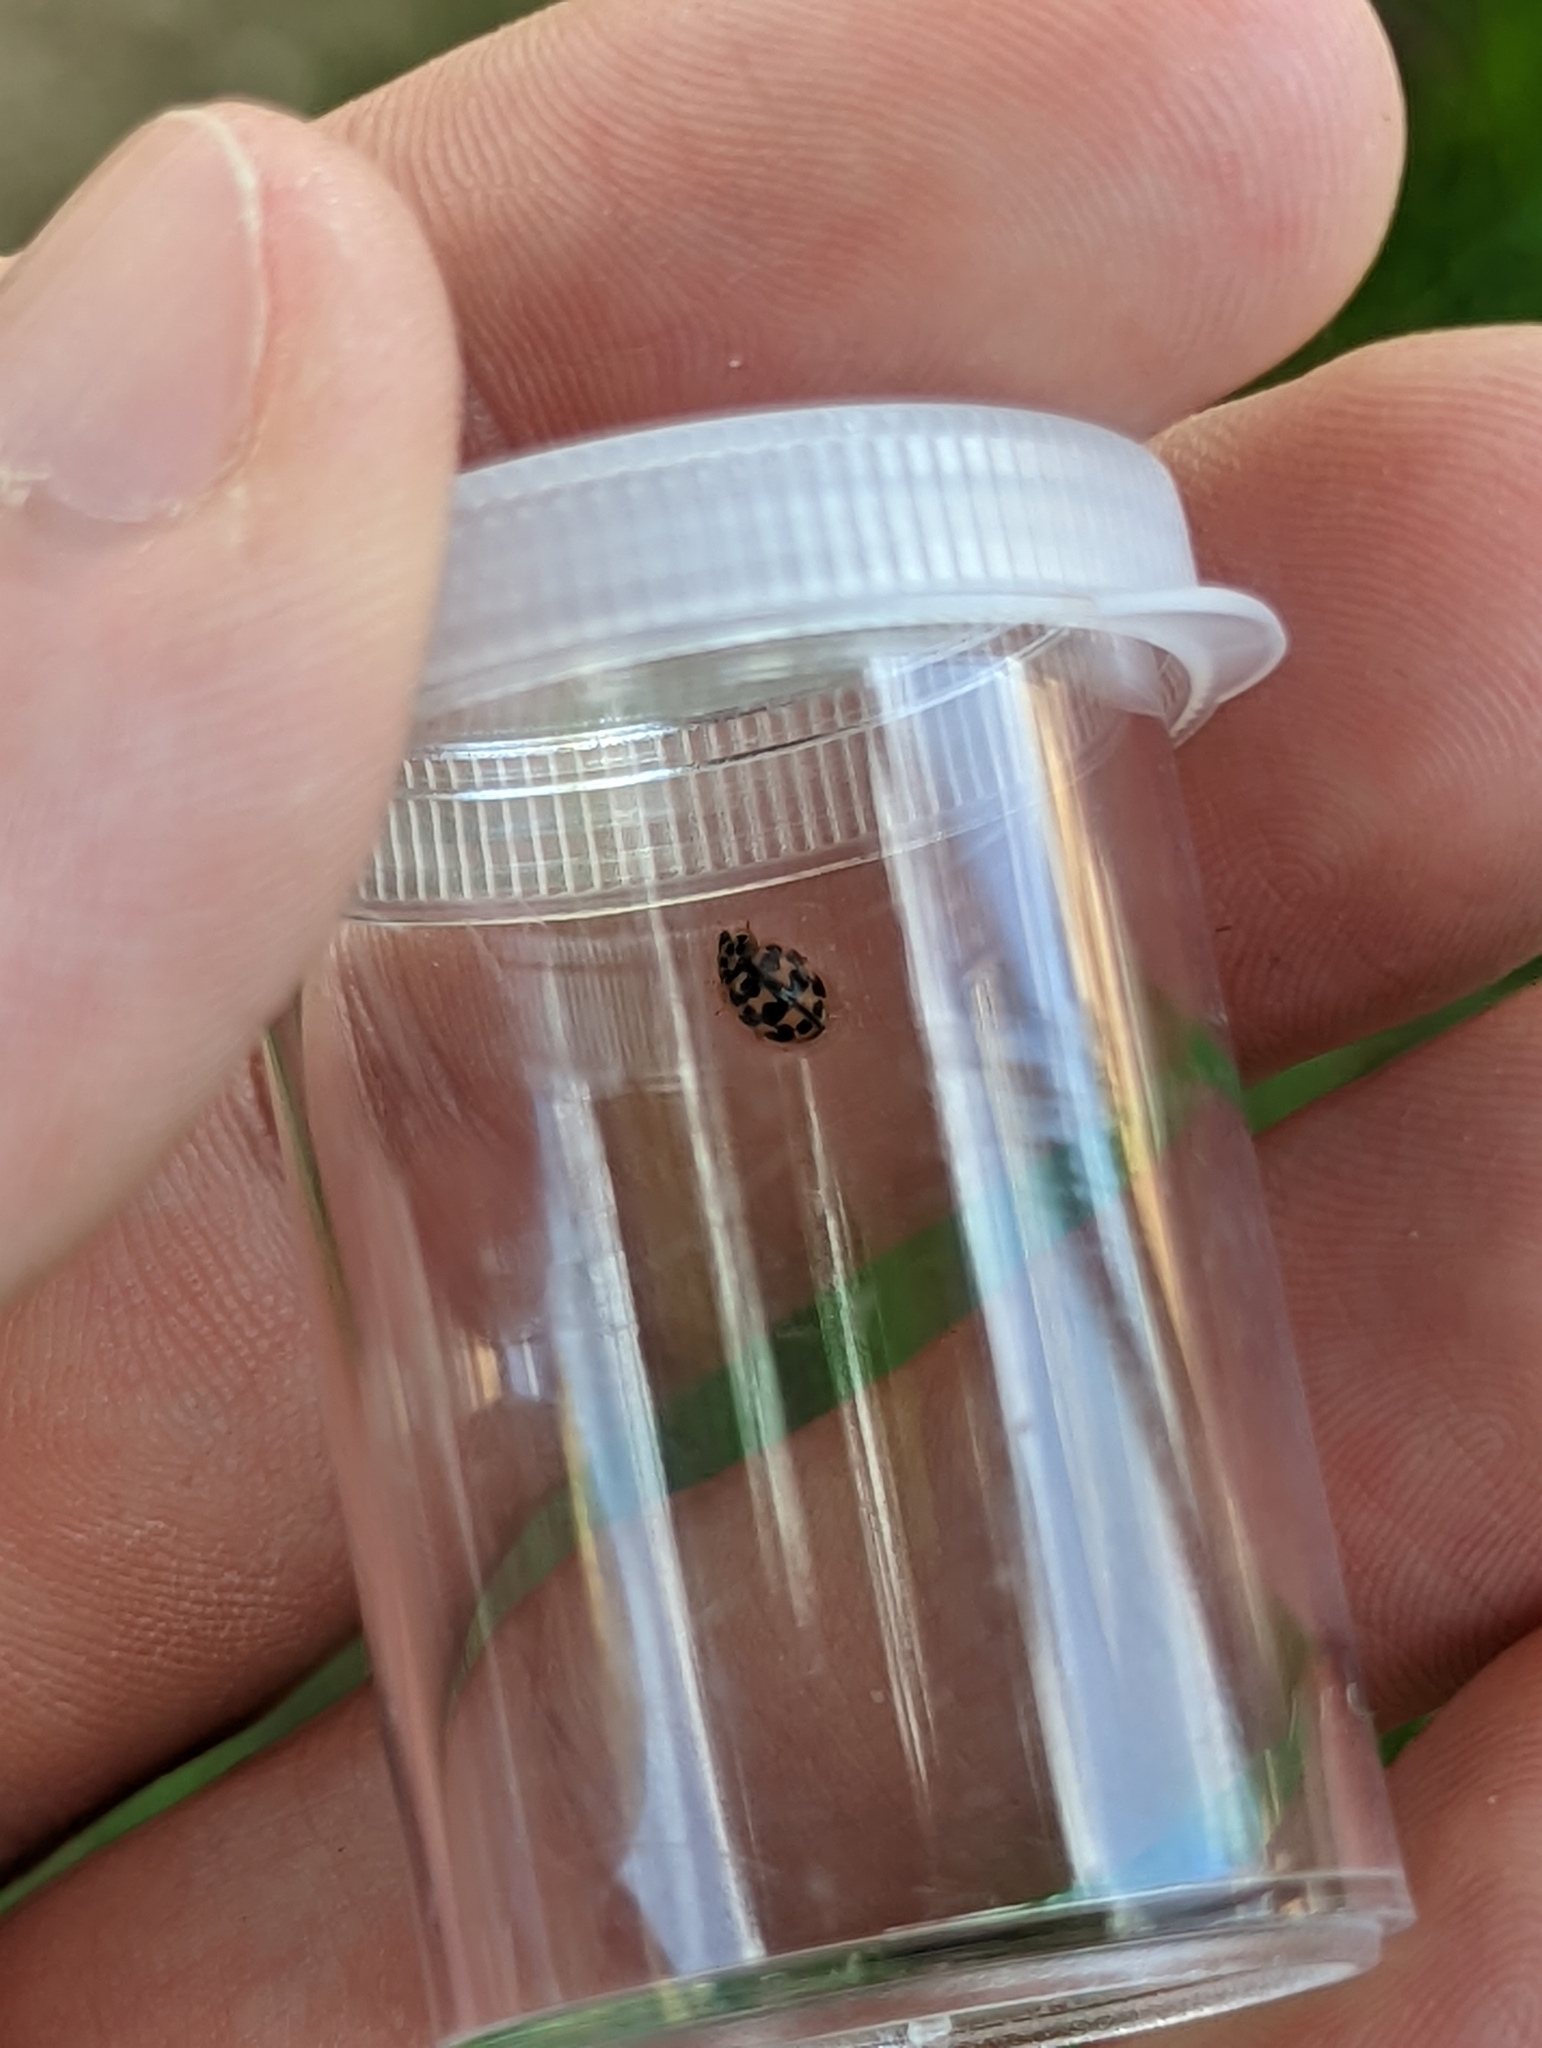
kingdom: Animalia
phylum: Arthropoda
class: Insecta
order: Coleoptera
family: Coccinellidae
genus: Oenopia
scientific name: Oenopia conglobata
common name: Ladybird beetle
